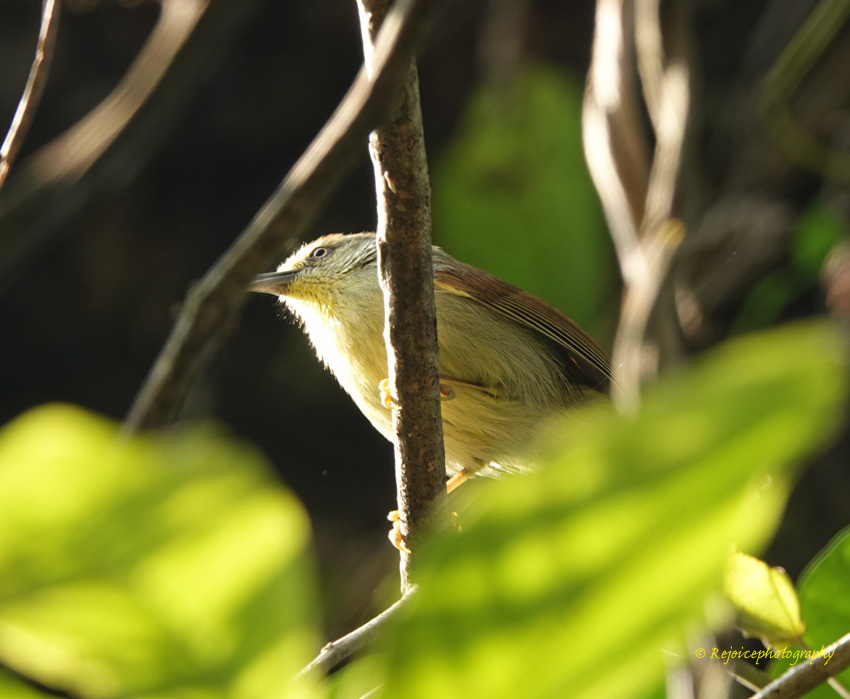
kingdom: Animalia
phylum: Chordata
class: Aves
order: Passeriformes
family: Timaliidae
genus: Macronus
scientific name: Macronus gularis
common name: Striped tit-babbler
